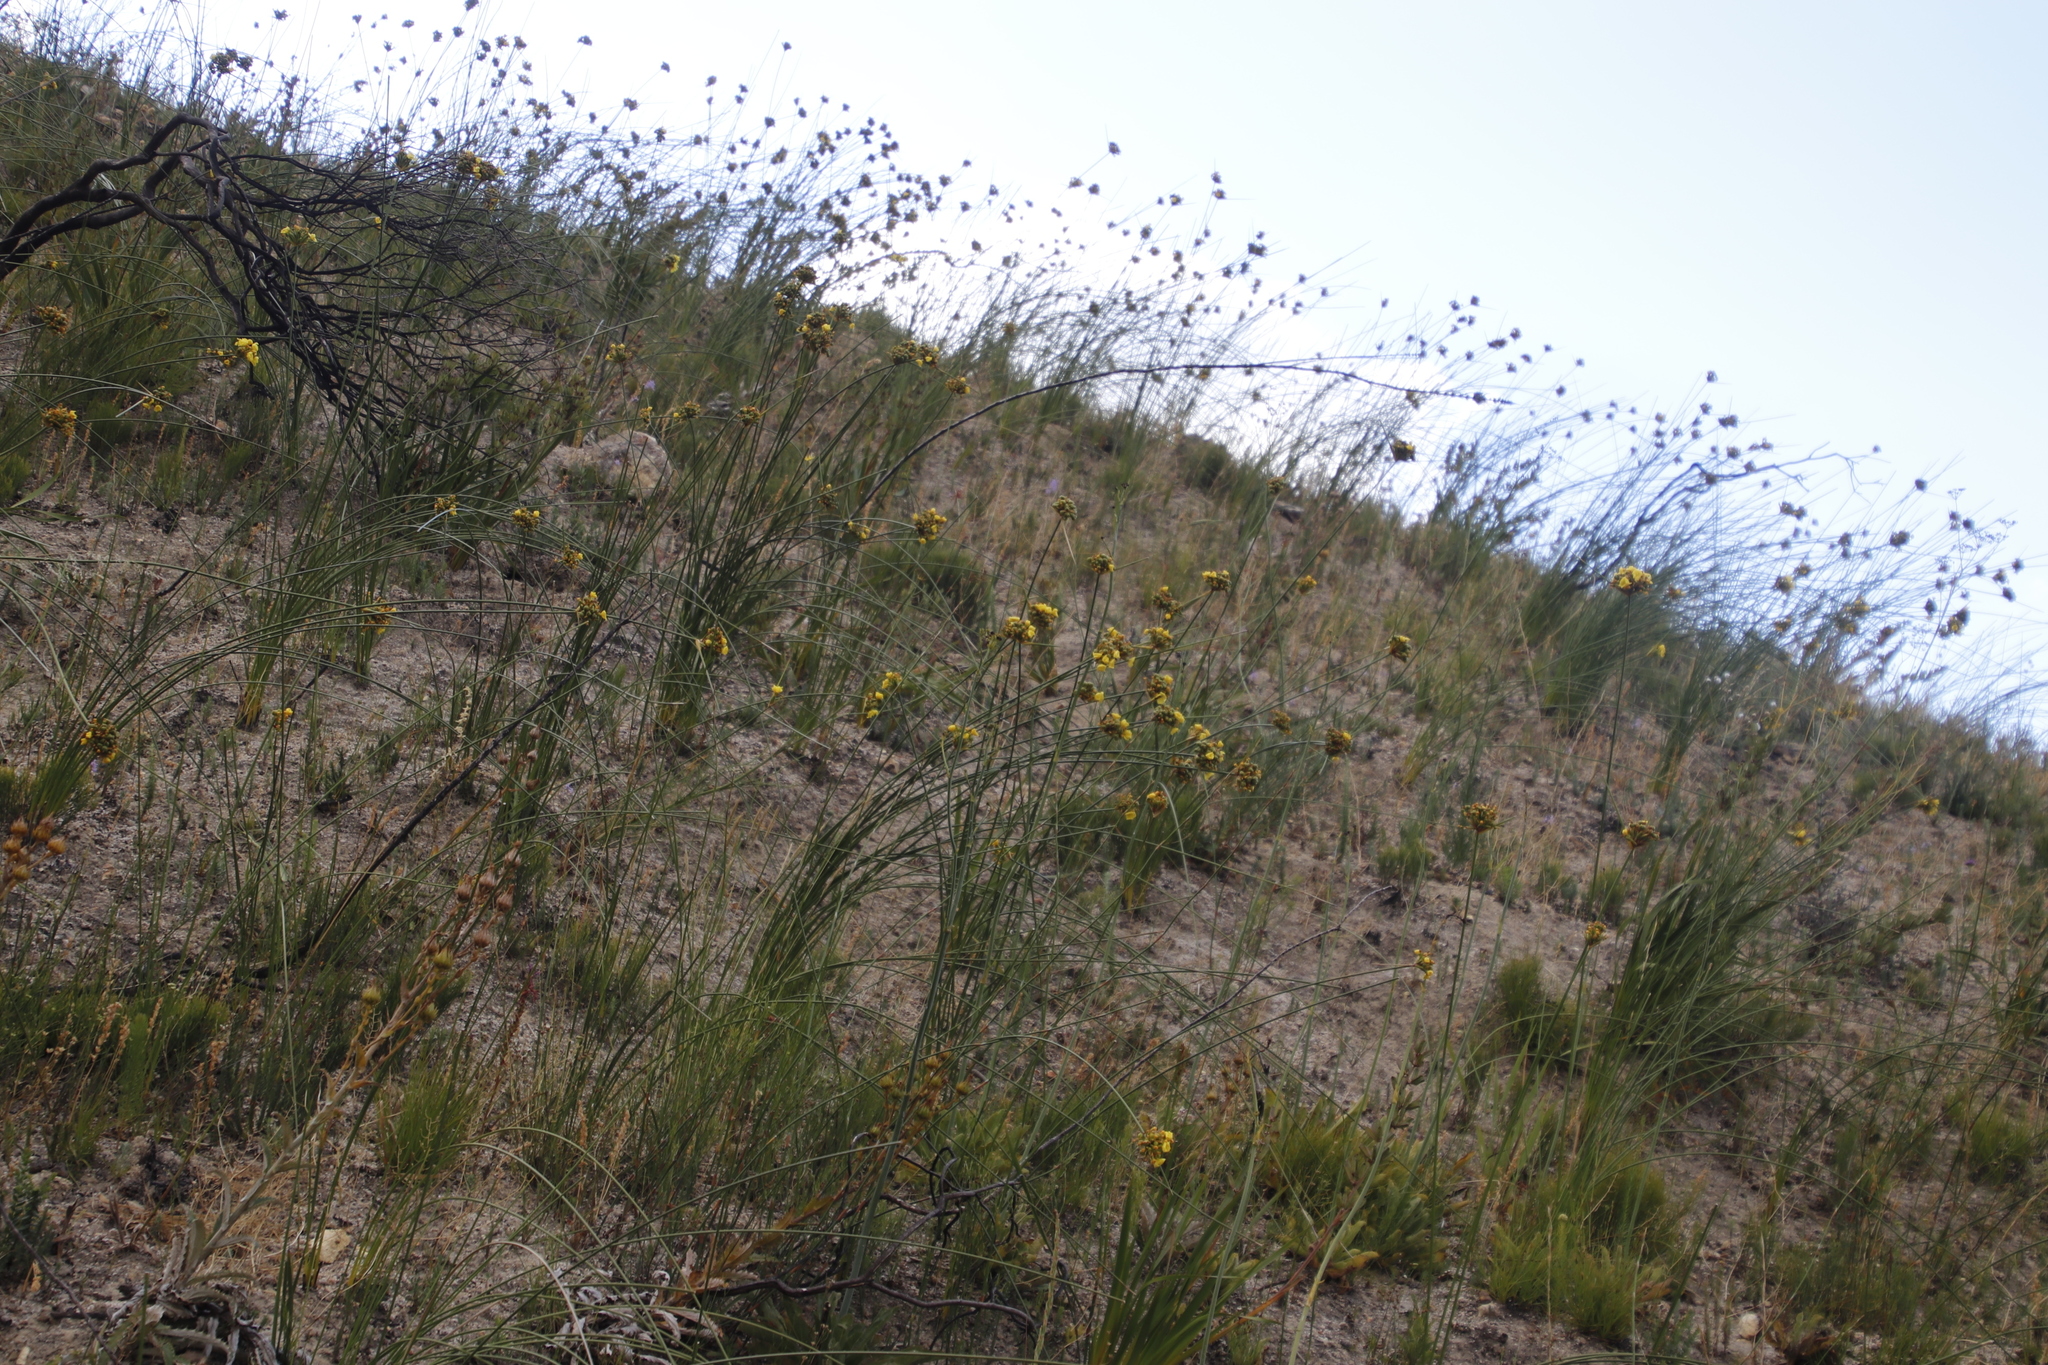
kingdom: Plantae
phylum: Tracheophyta
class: Liliopsida
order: Asparagales
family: Iridaceae
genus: Bobartia
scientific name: Bobartia indica
